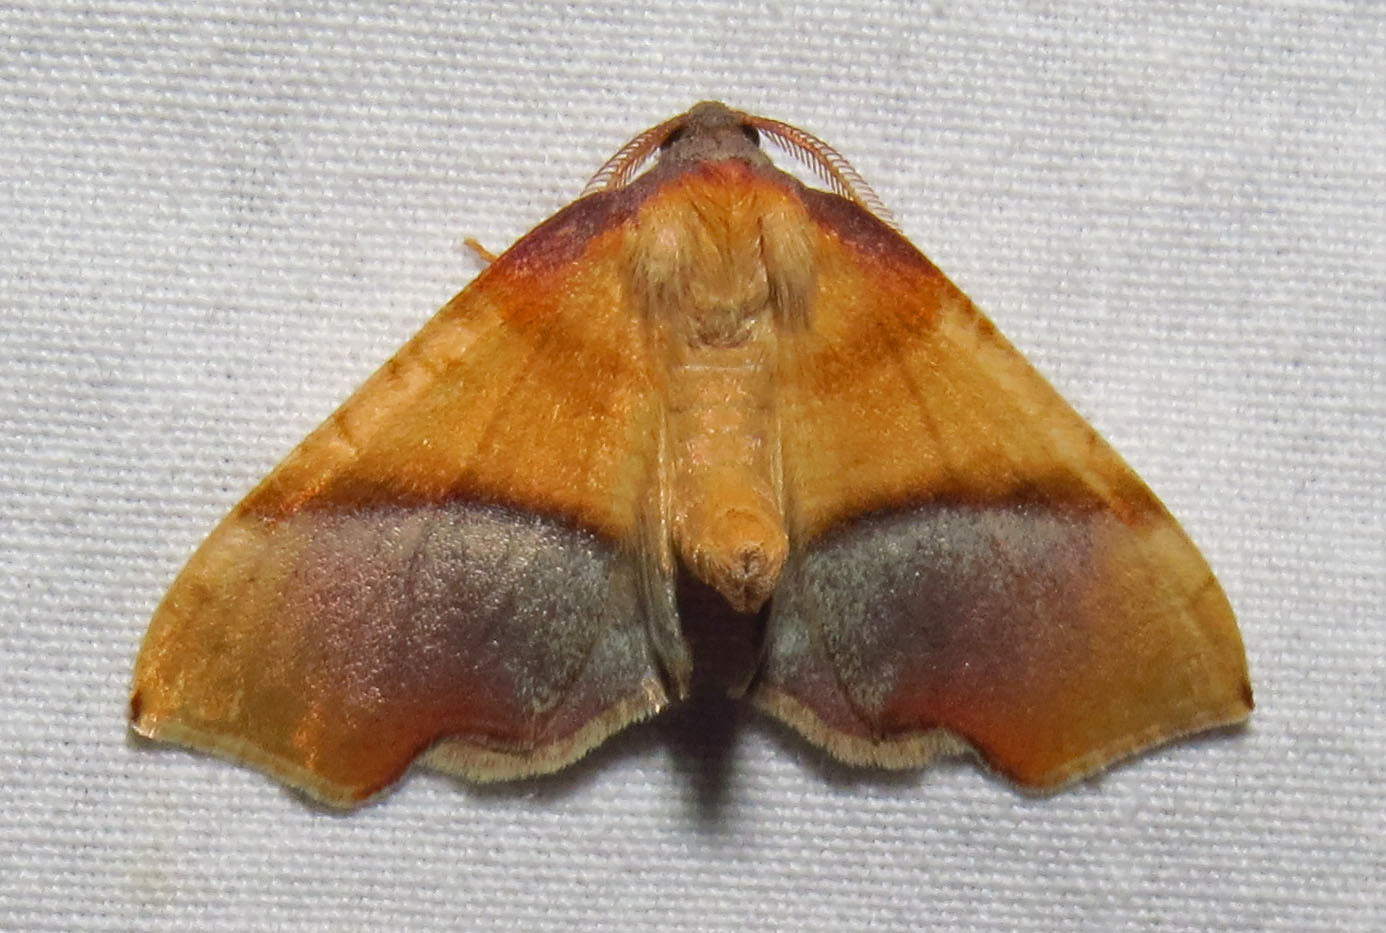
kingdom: Animalia
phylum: Arthropoda
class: Insecta
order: Lepidoptera
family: Geometridae
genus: Plagodis
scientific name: Plagodis phlogosaria
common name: Straight-lined plagodis
